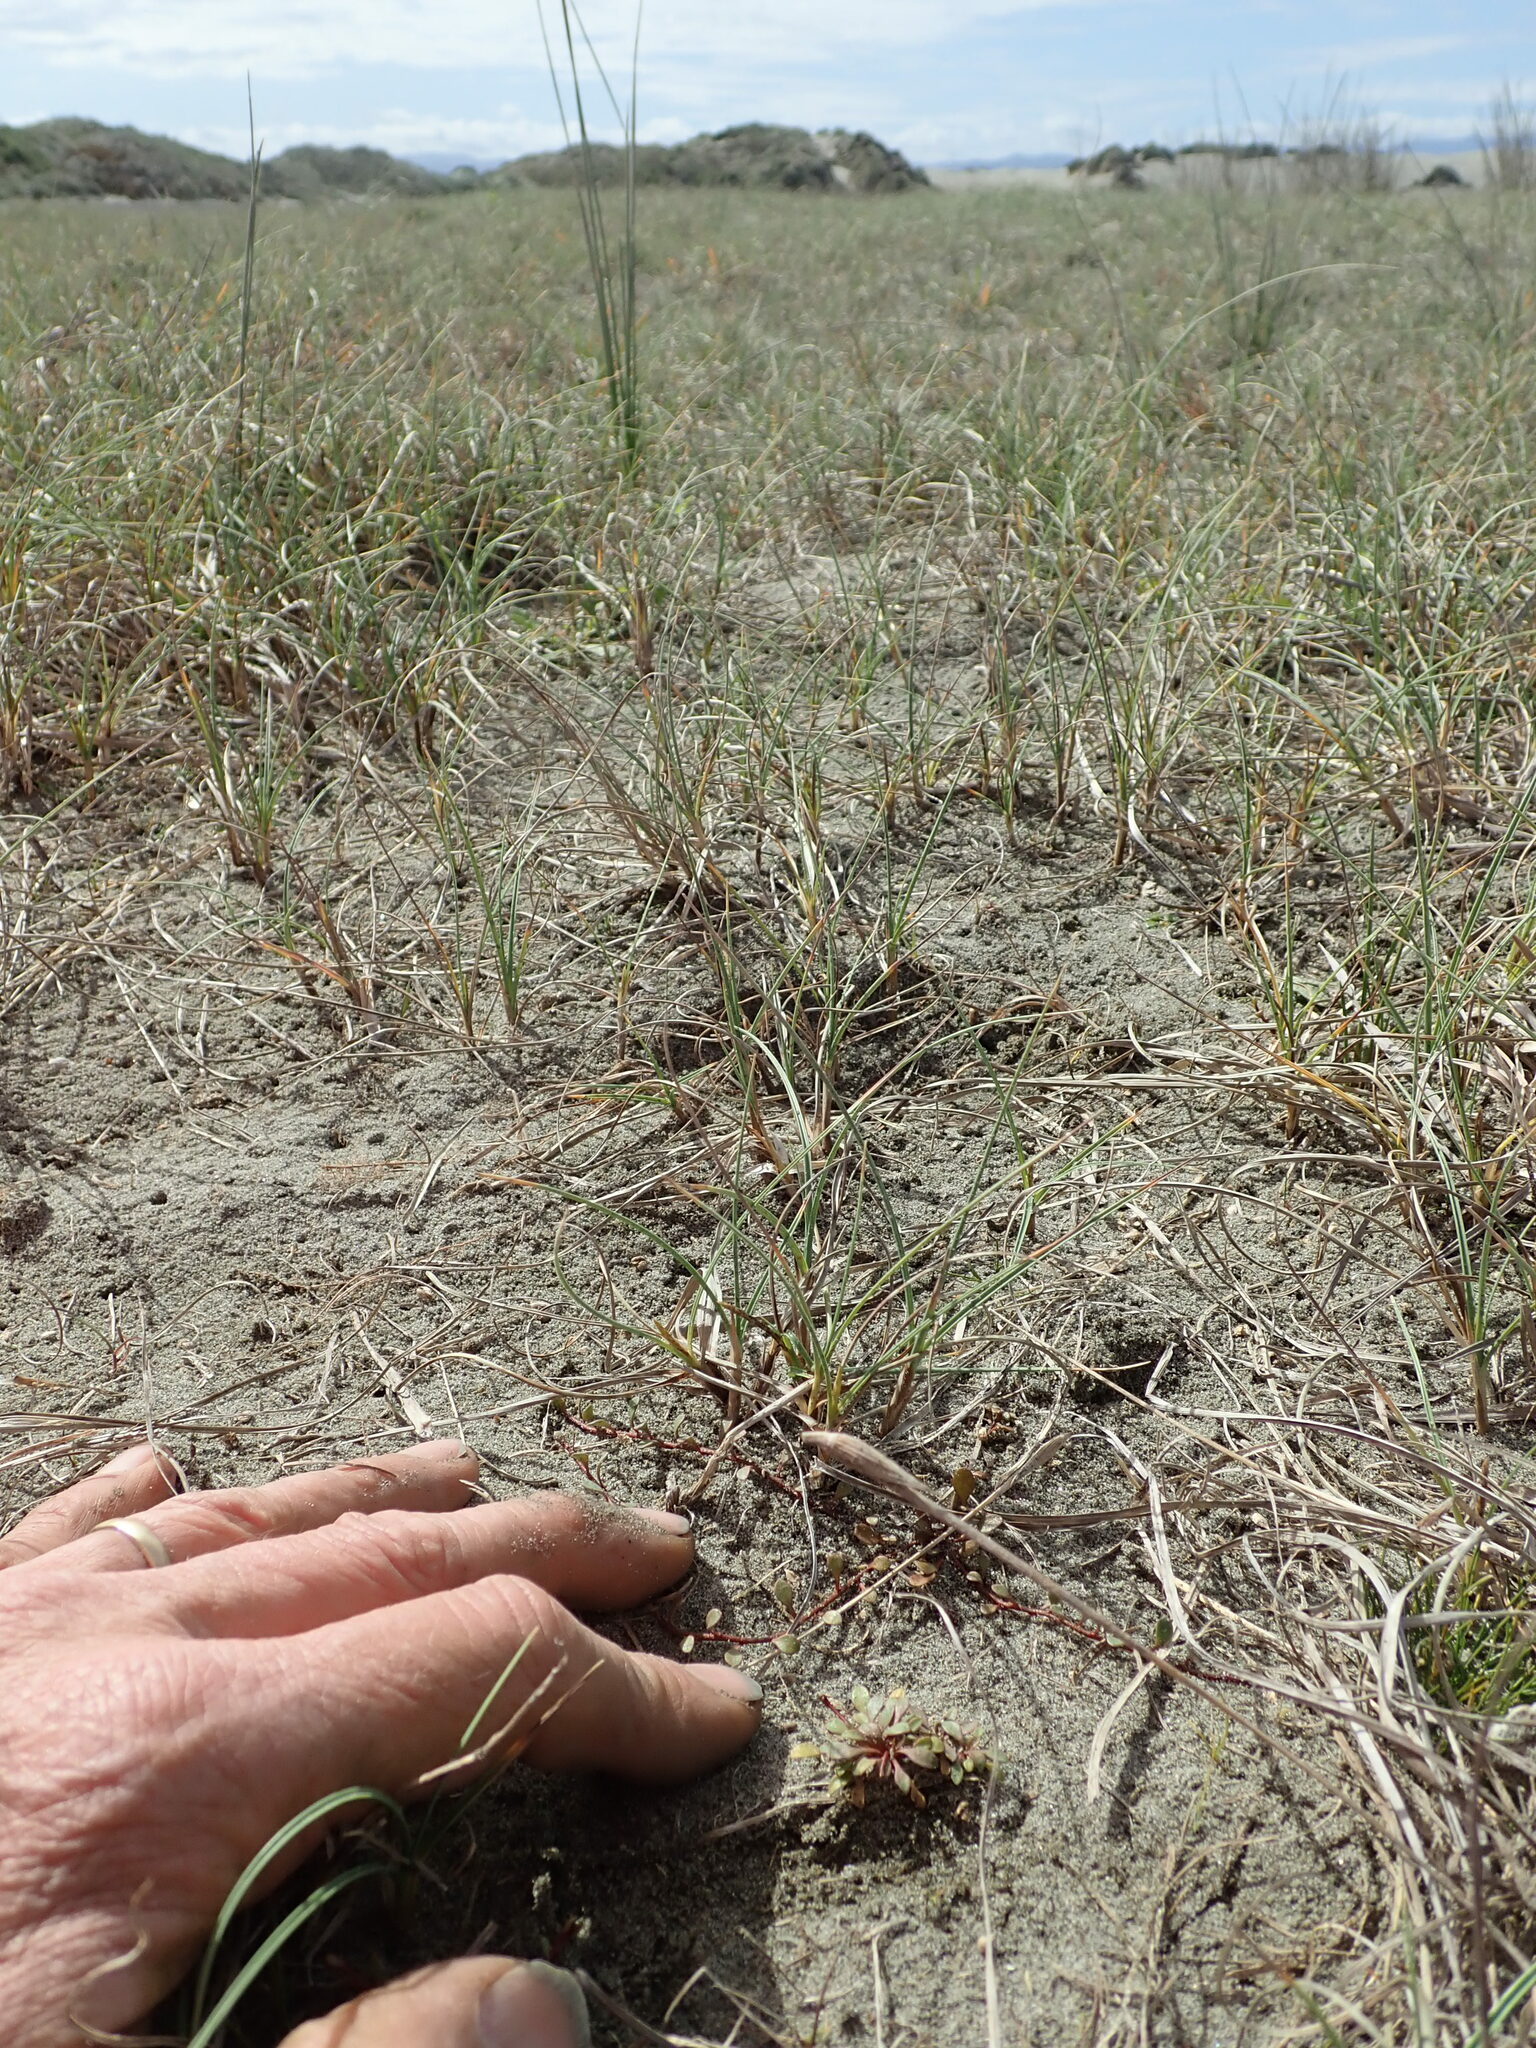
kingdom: Plantae
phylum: Tracheophyta
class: Magnoliopsida
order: Ericales
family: Primulaceae
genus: Samolus
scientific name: Samolus repens
